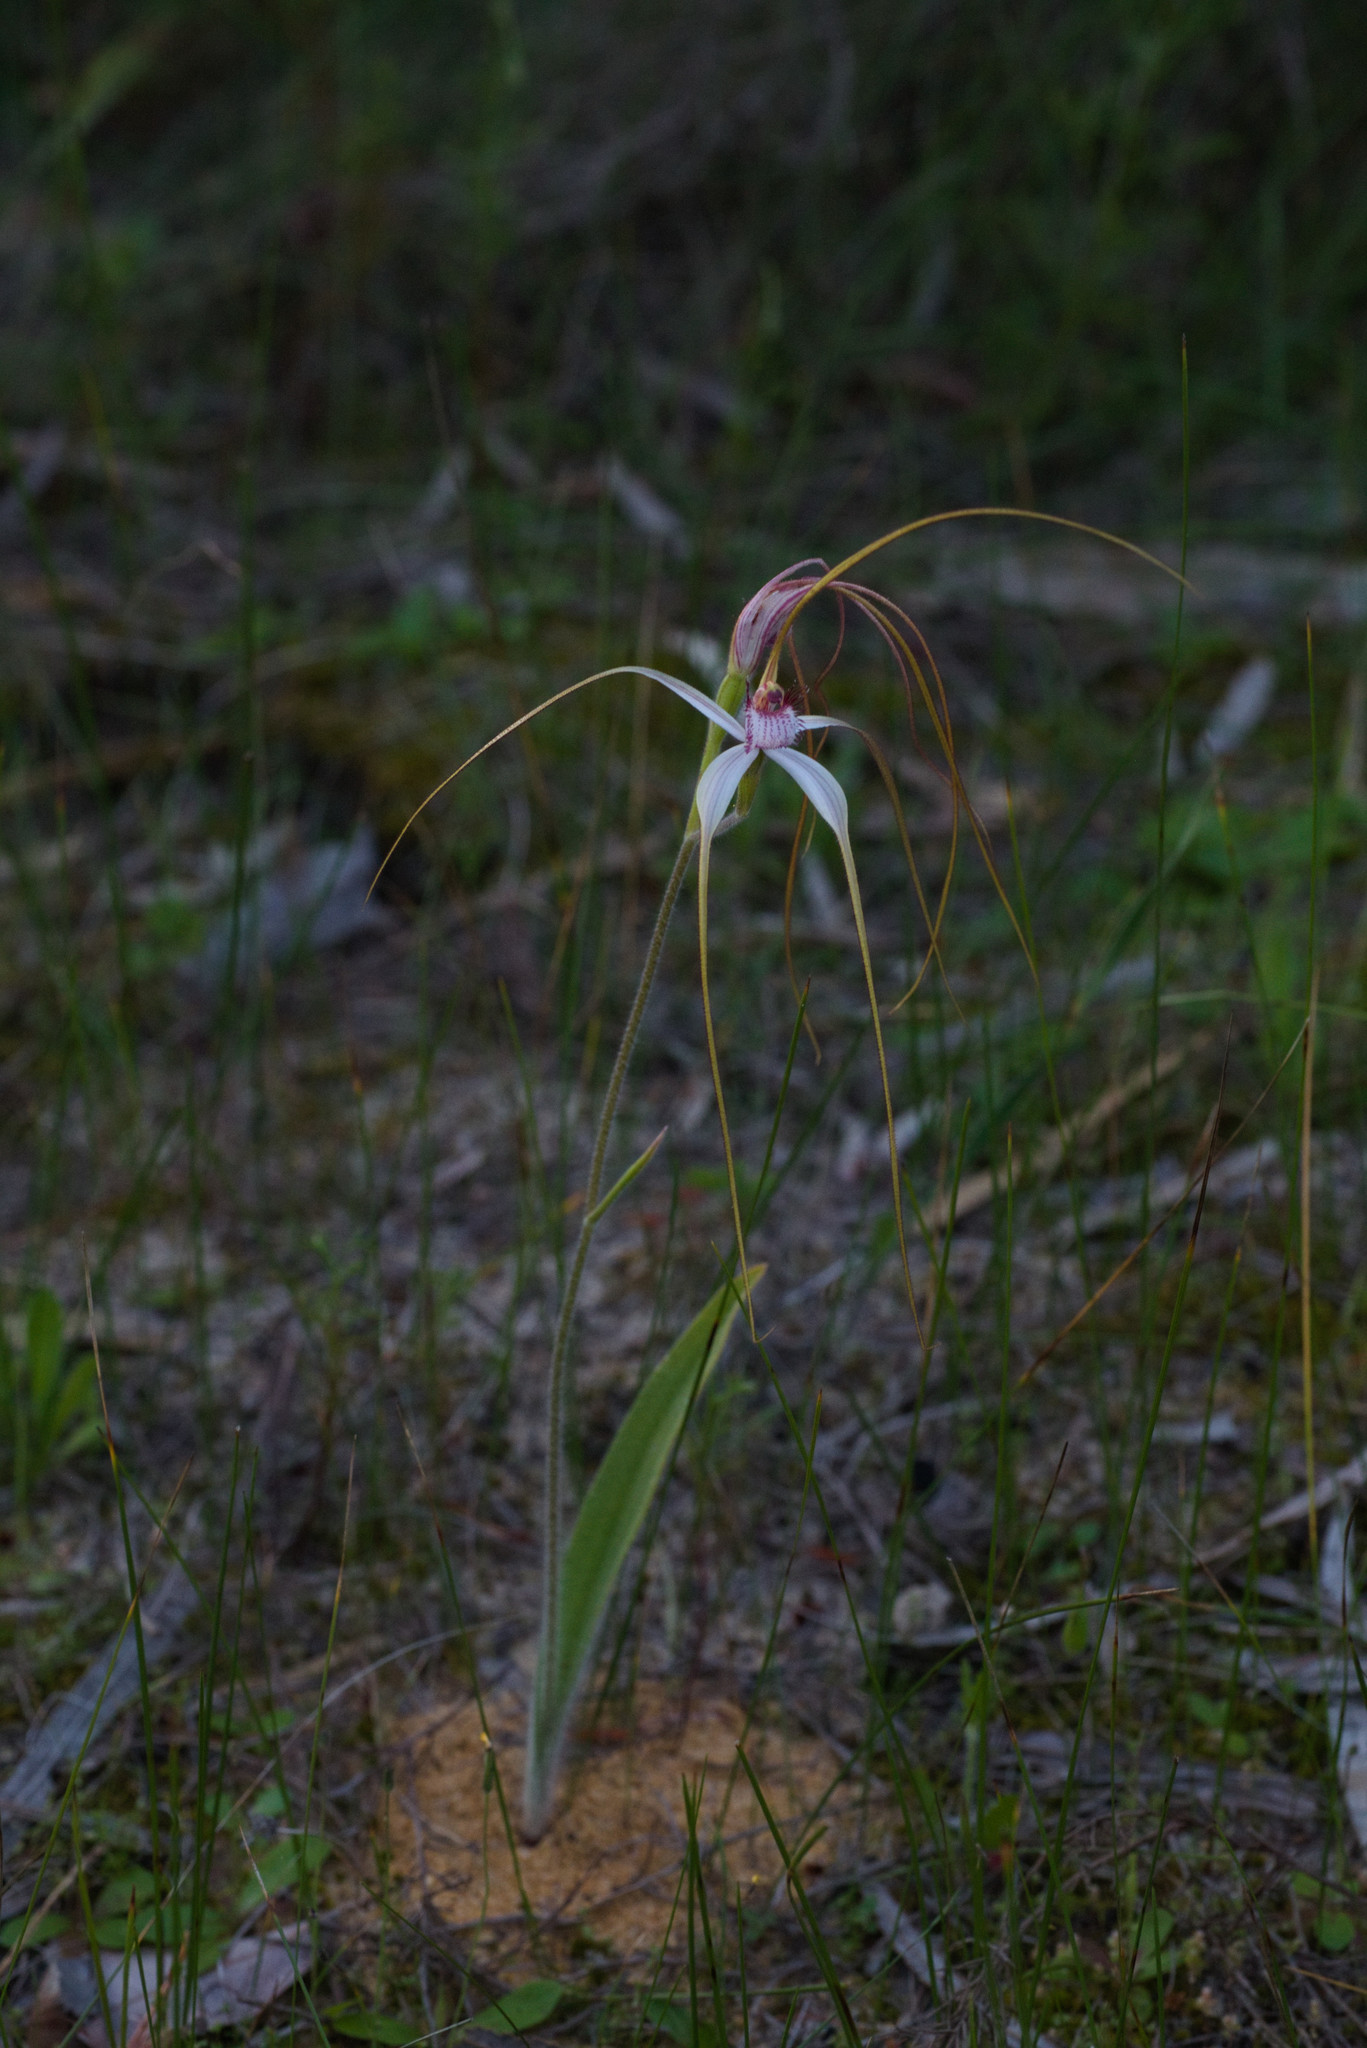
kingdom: Plantae
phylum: Tracheophyta
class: Liliopsida
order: Asparagales
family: Orchidaceae
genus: Caladenia
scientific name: Caladenia longicauda
